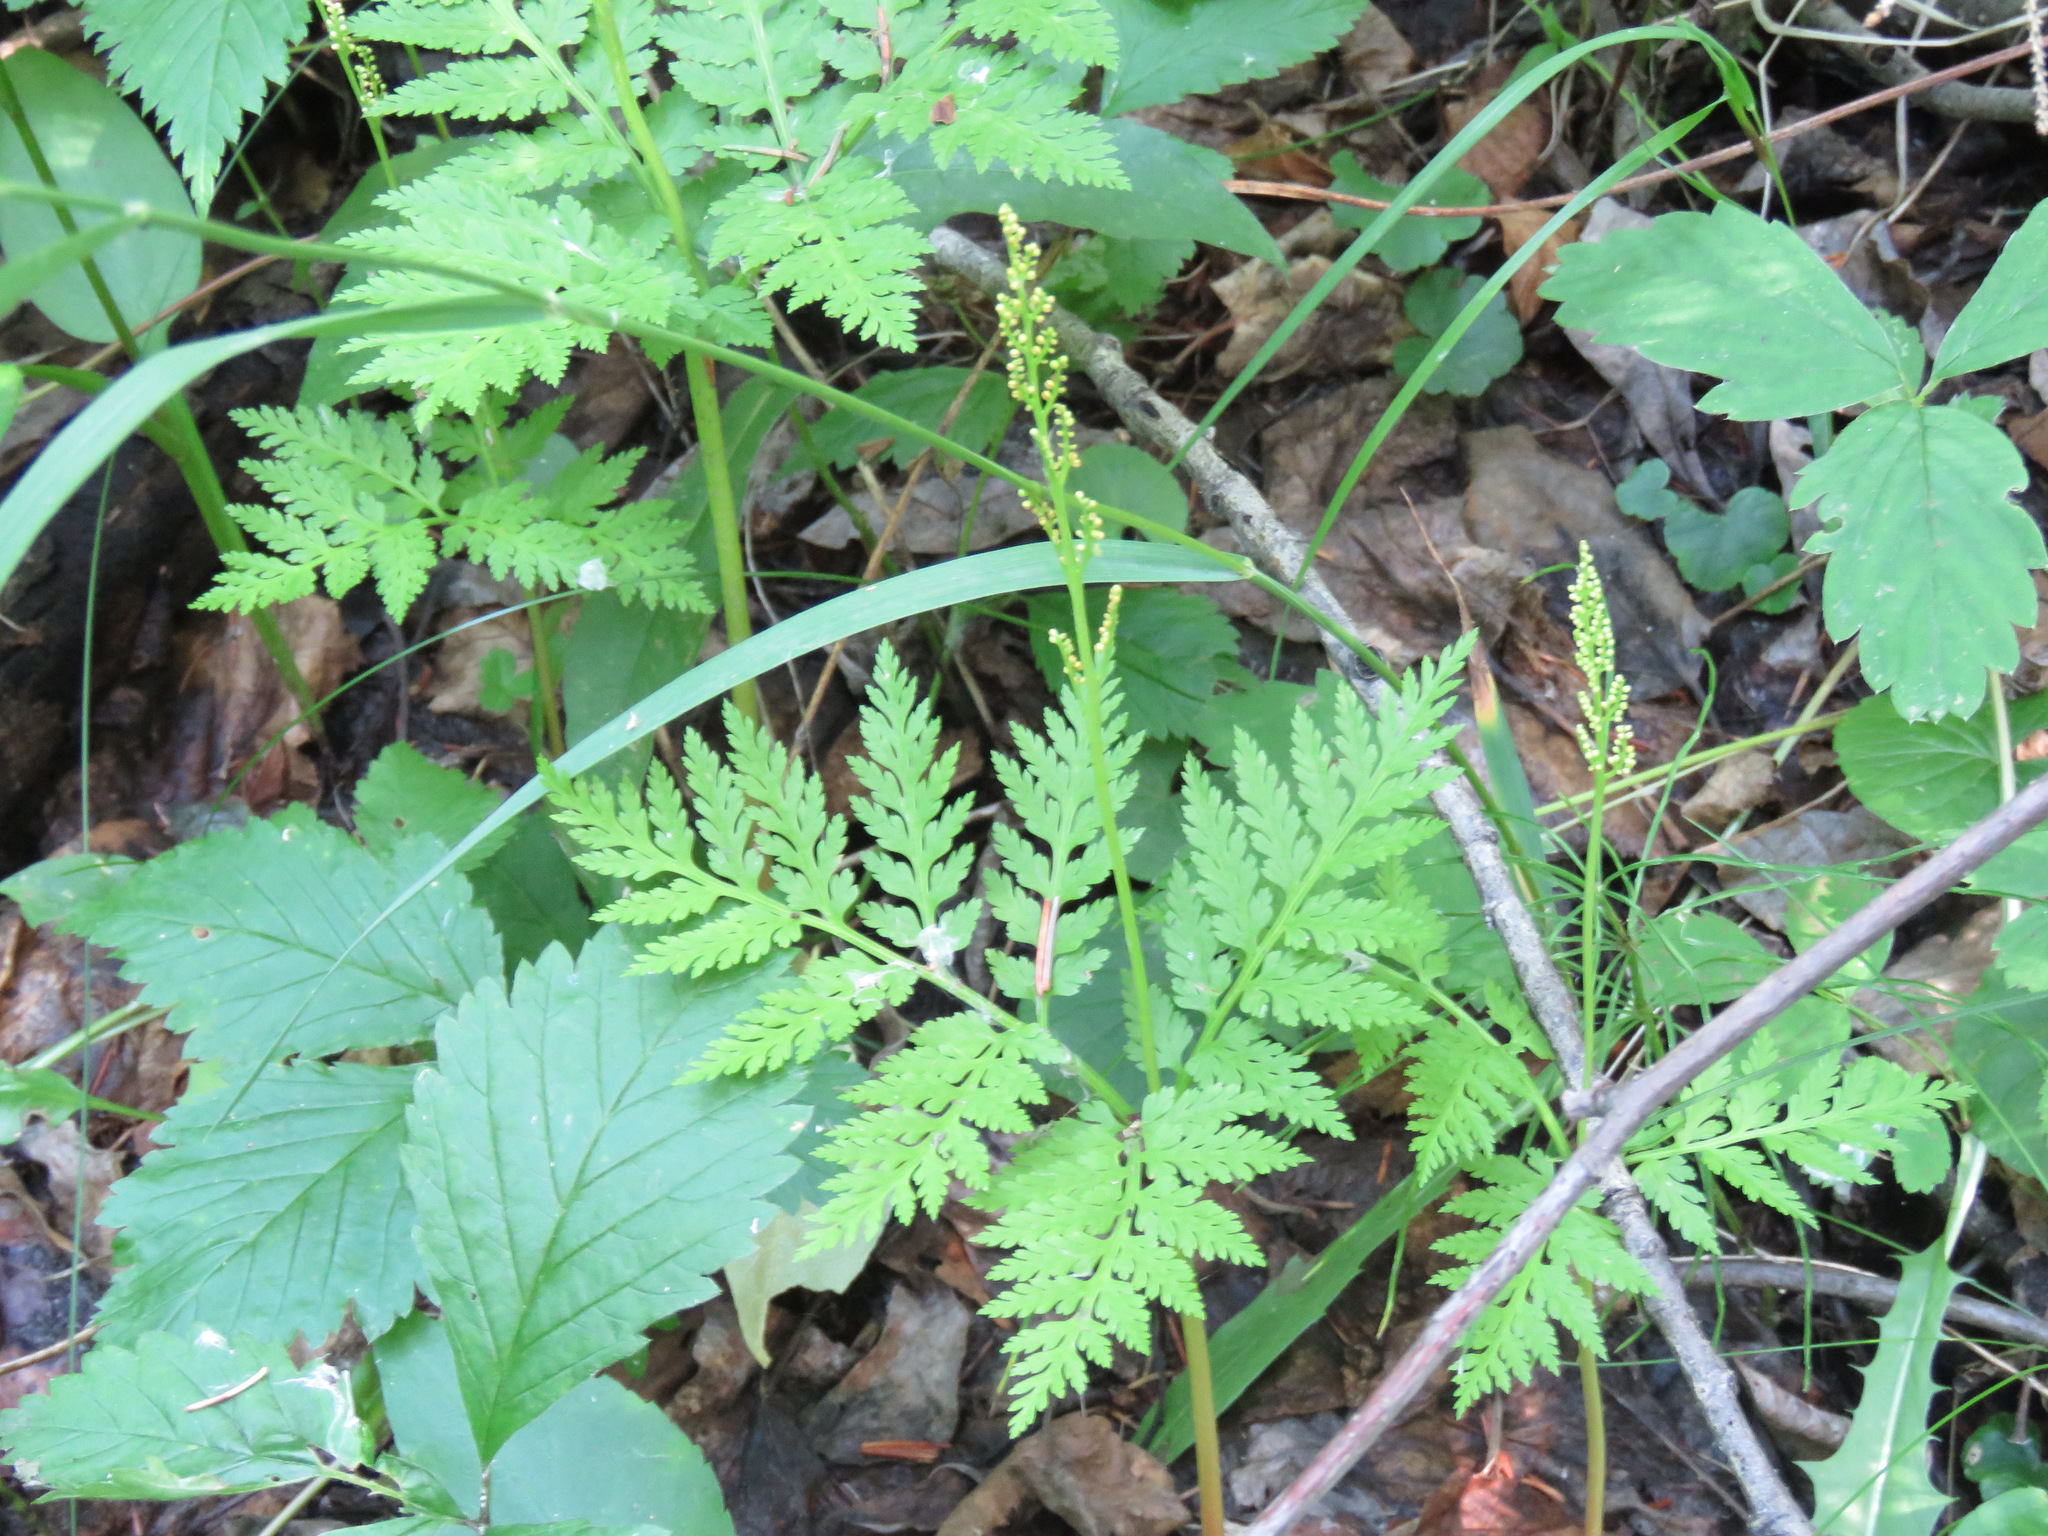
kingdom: Plantae
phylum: Tracheophyta
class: Polypodiopsida
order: Ophioglossales
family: Ophioglossaceae
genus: Botrypus
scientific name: Botrypus virginianus
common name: Common grapefern
